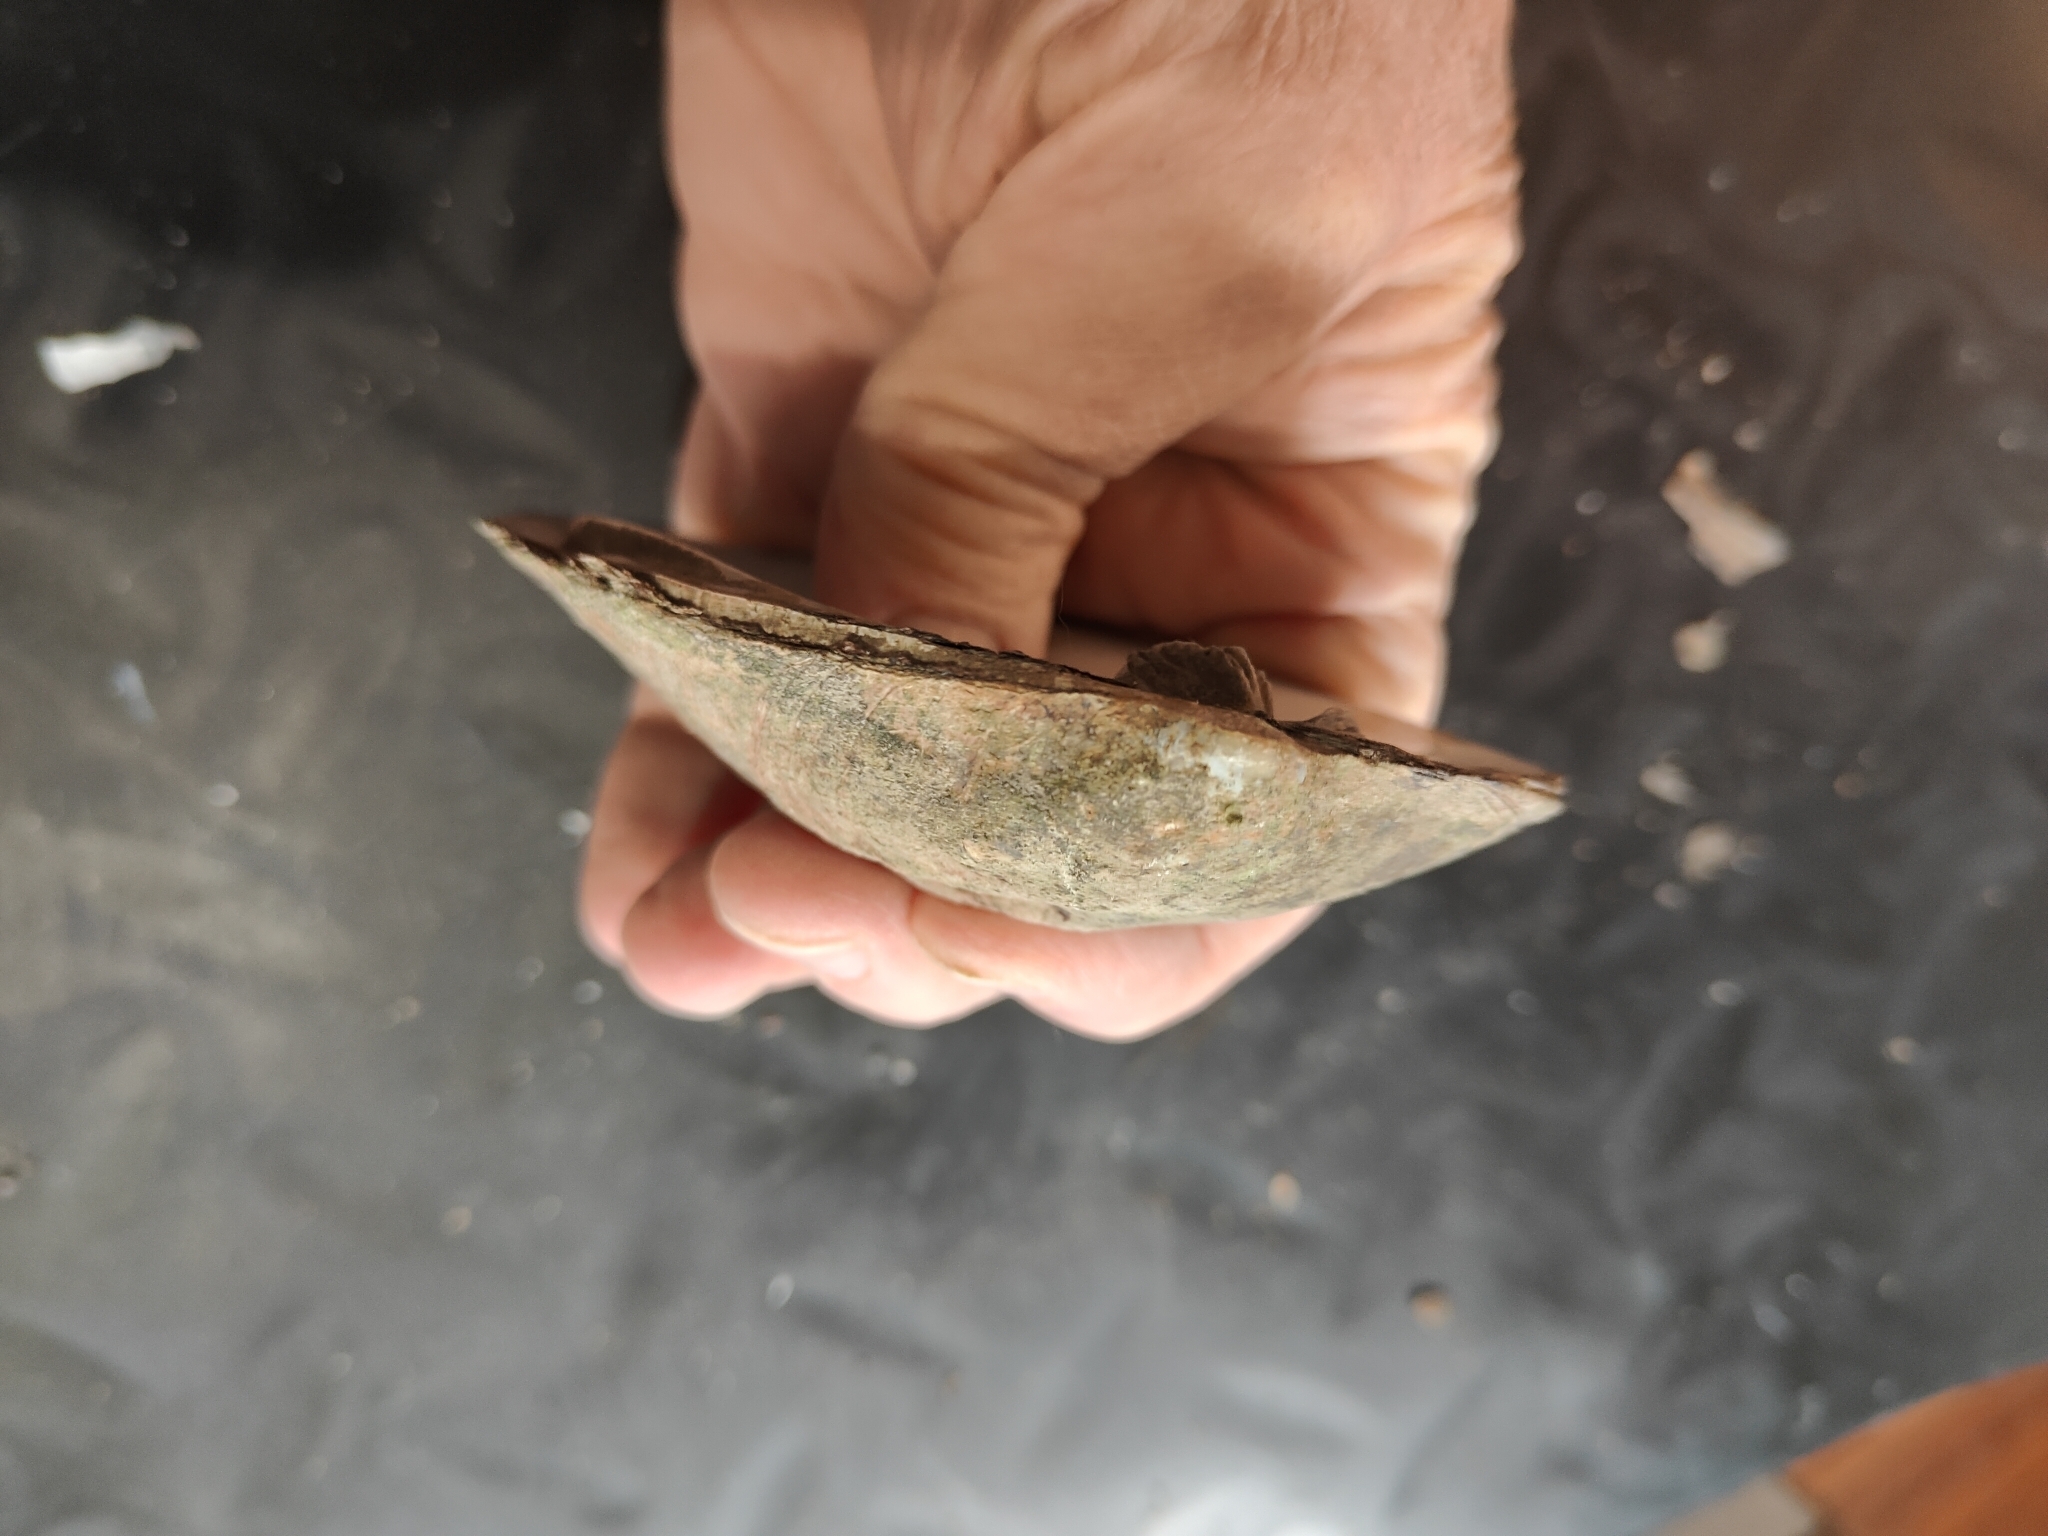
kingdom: Animalia
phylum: Mollusca
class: Bivalvia
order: Unionida
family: Unionidae
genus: Amblema
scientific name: Amblema plicata
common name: Threeridge
